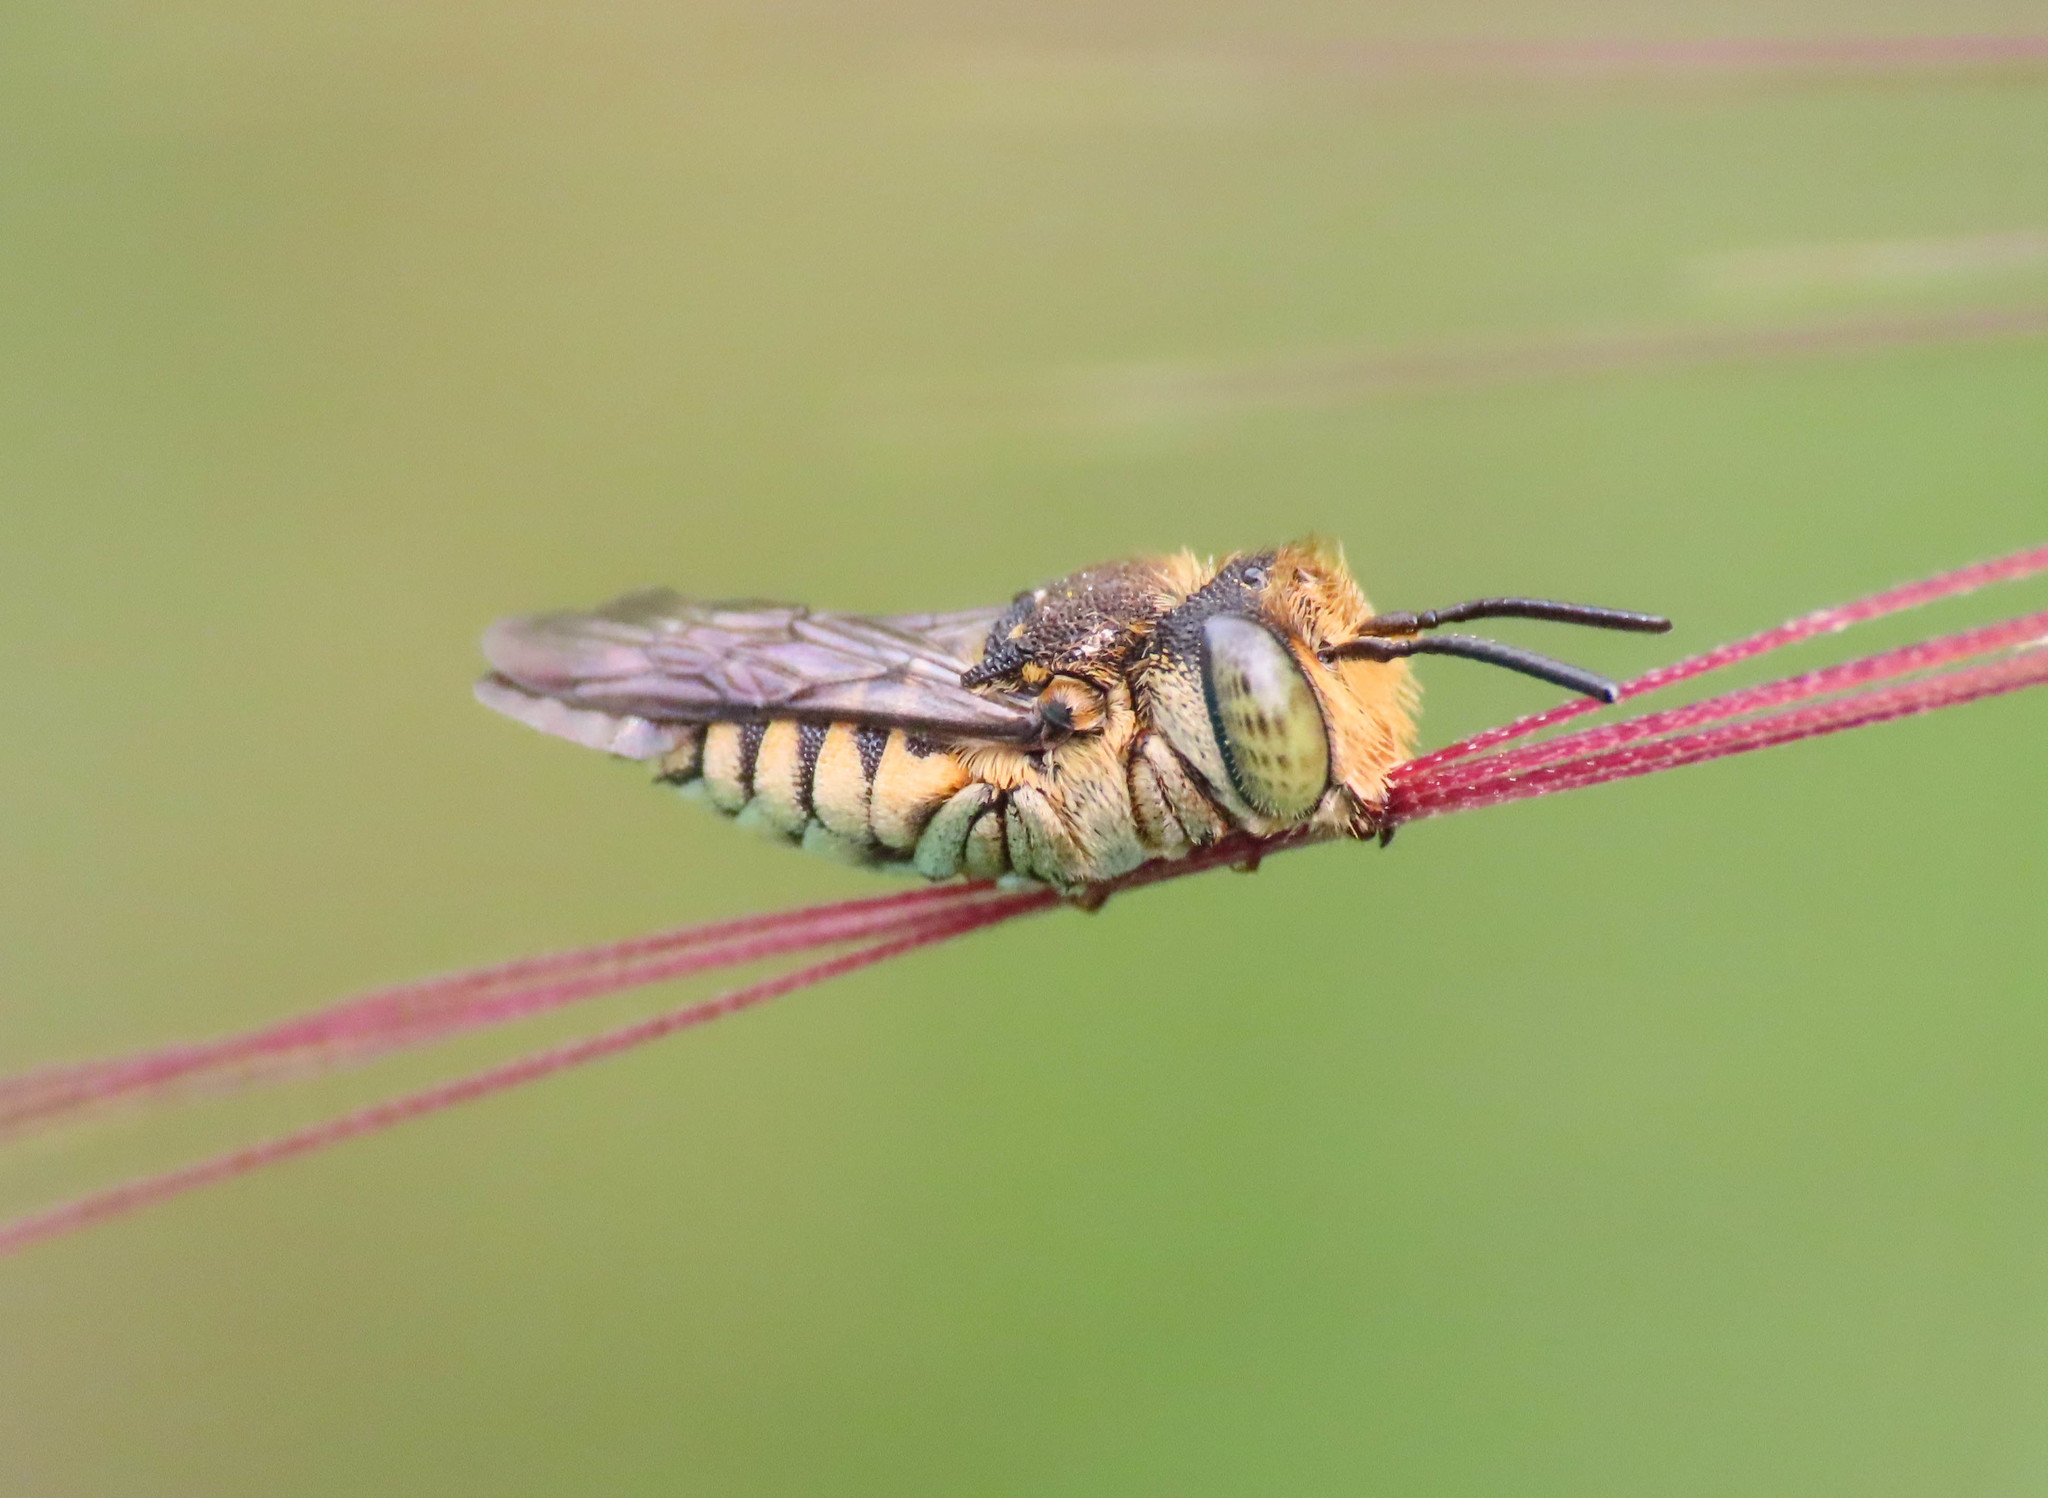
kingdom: Animalia
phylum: Arthropoda
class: Insecta
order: Hymenoptera
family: Megachilidae
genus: Coelioxys
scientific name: Coelioxys afra
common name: Short sharp-tail bee
